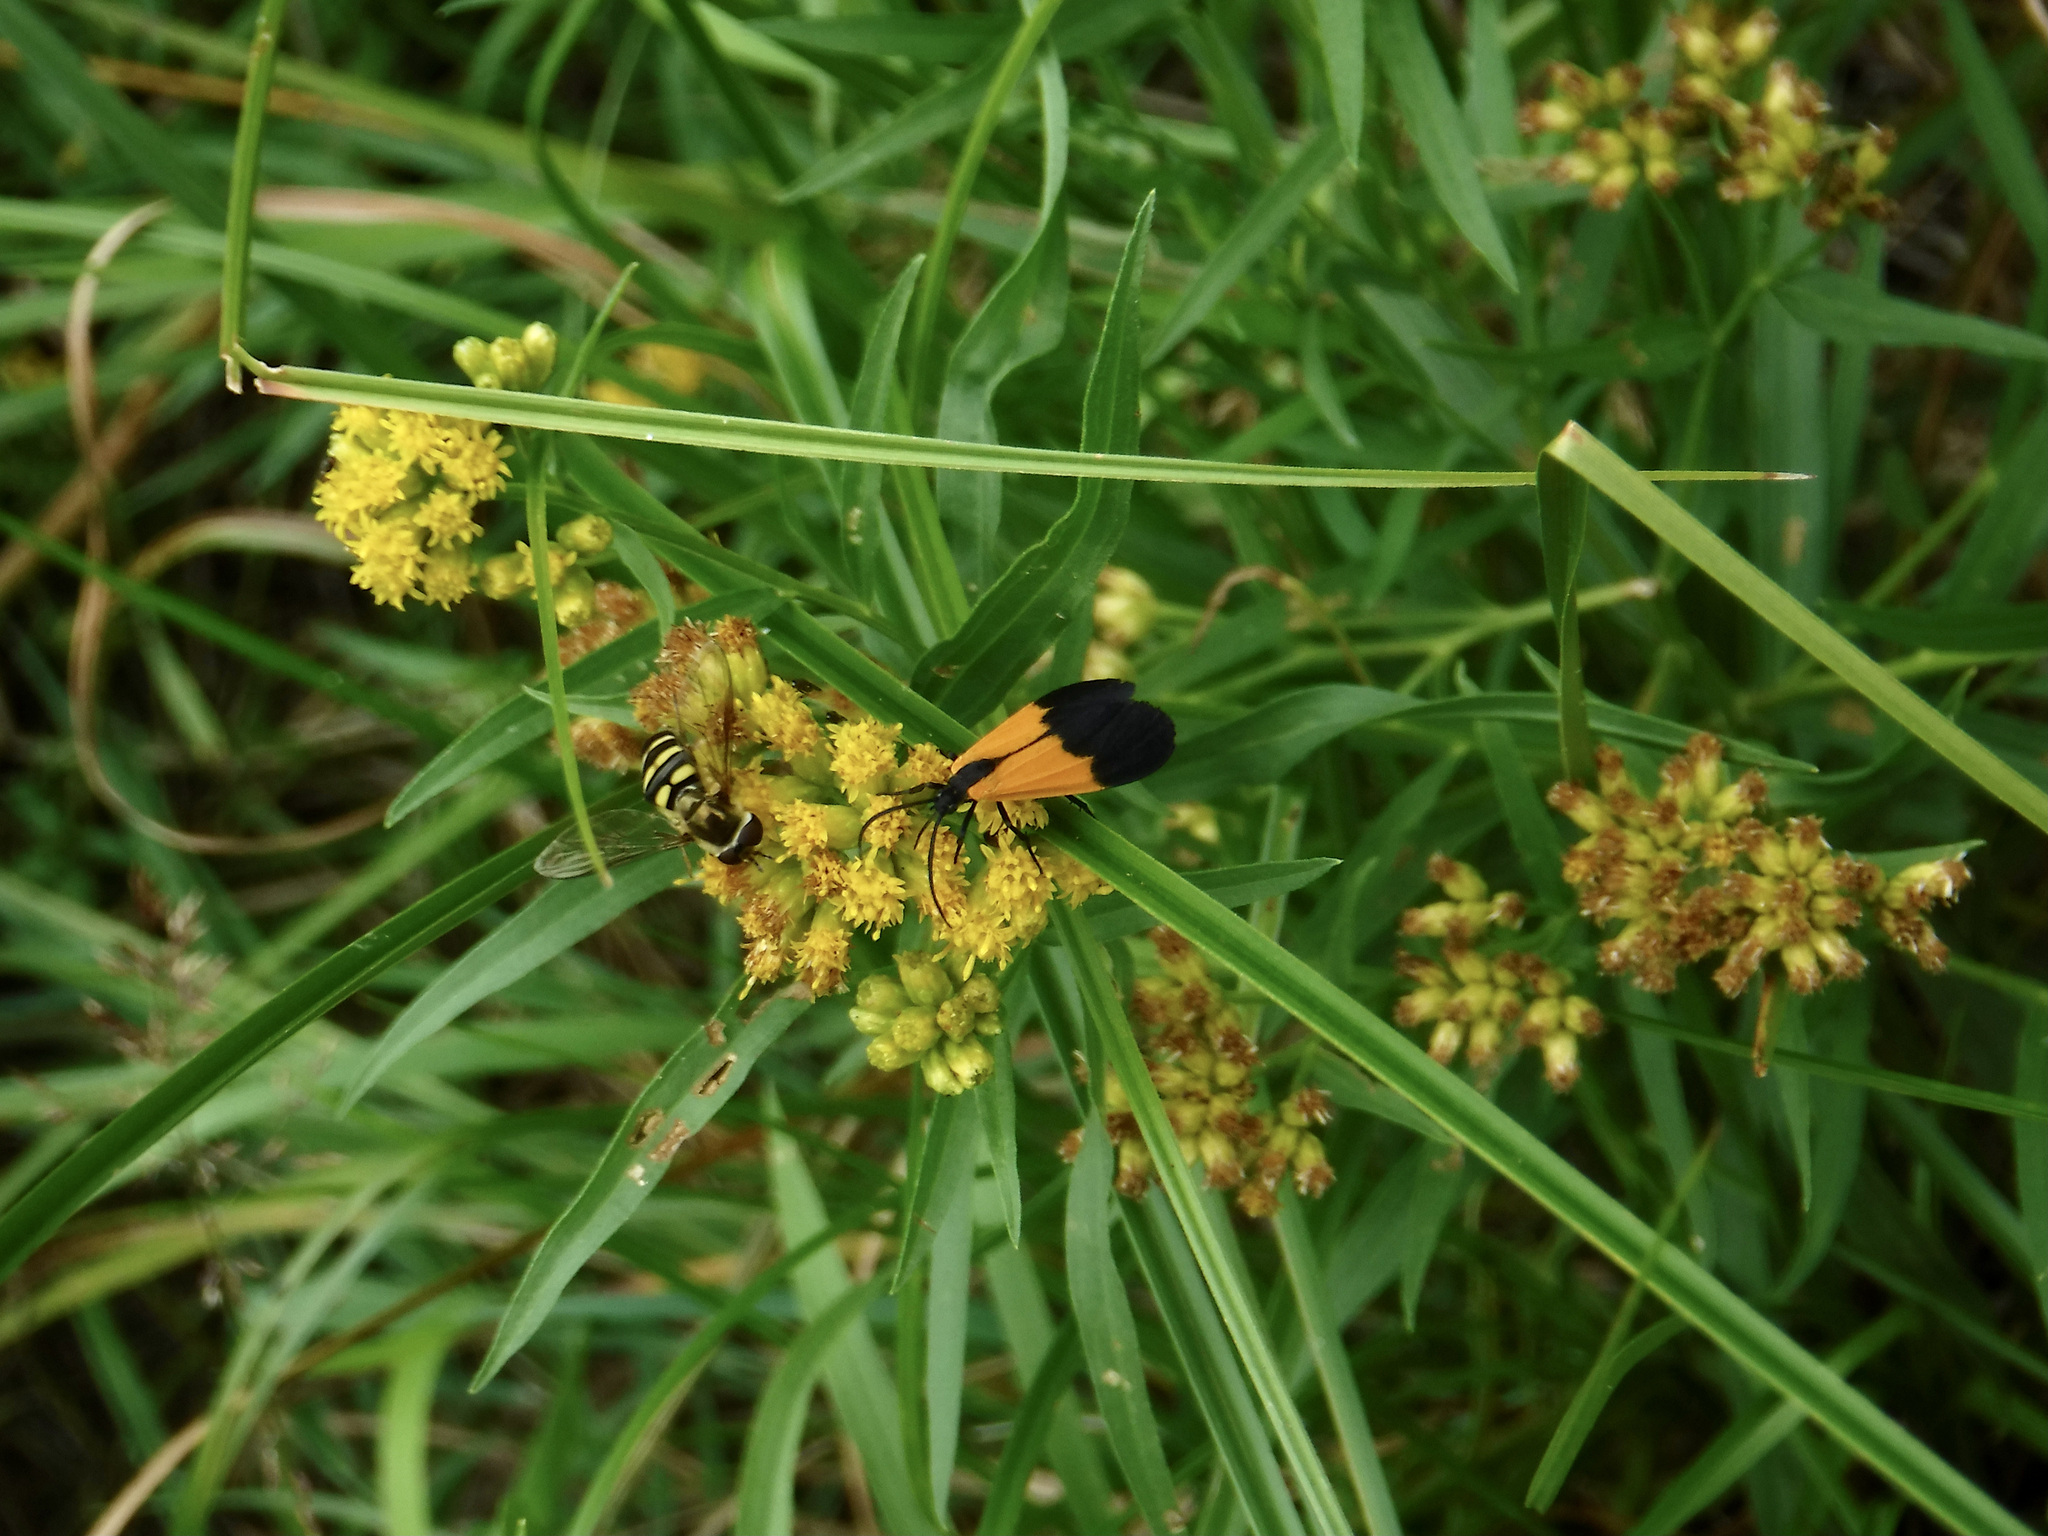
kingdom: Animalia
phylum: Arthropoda
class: Insecta
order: Lepidoptera
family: Erebidae
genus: Lycomorpha
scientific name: Lycomorpha pholus
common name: Black-and-yellow lichen moth
